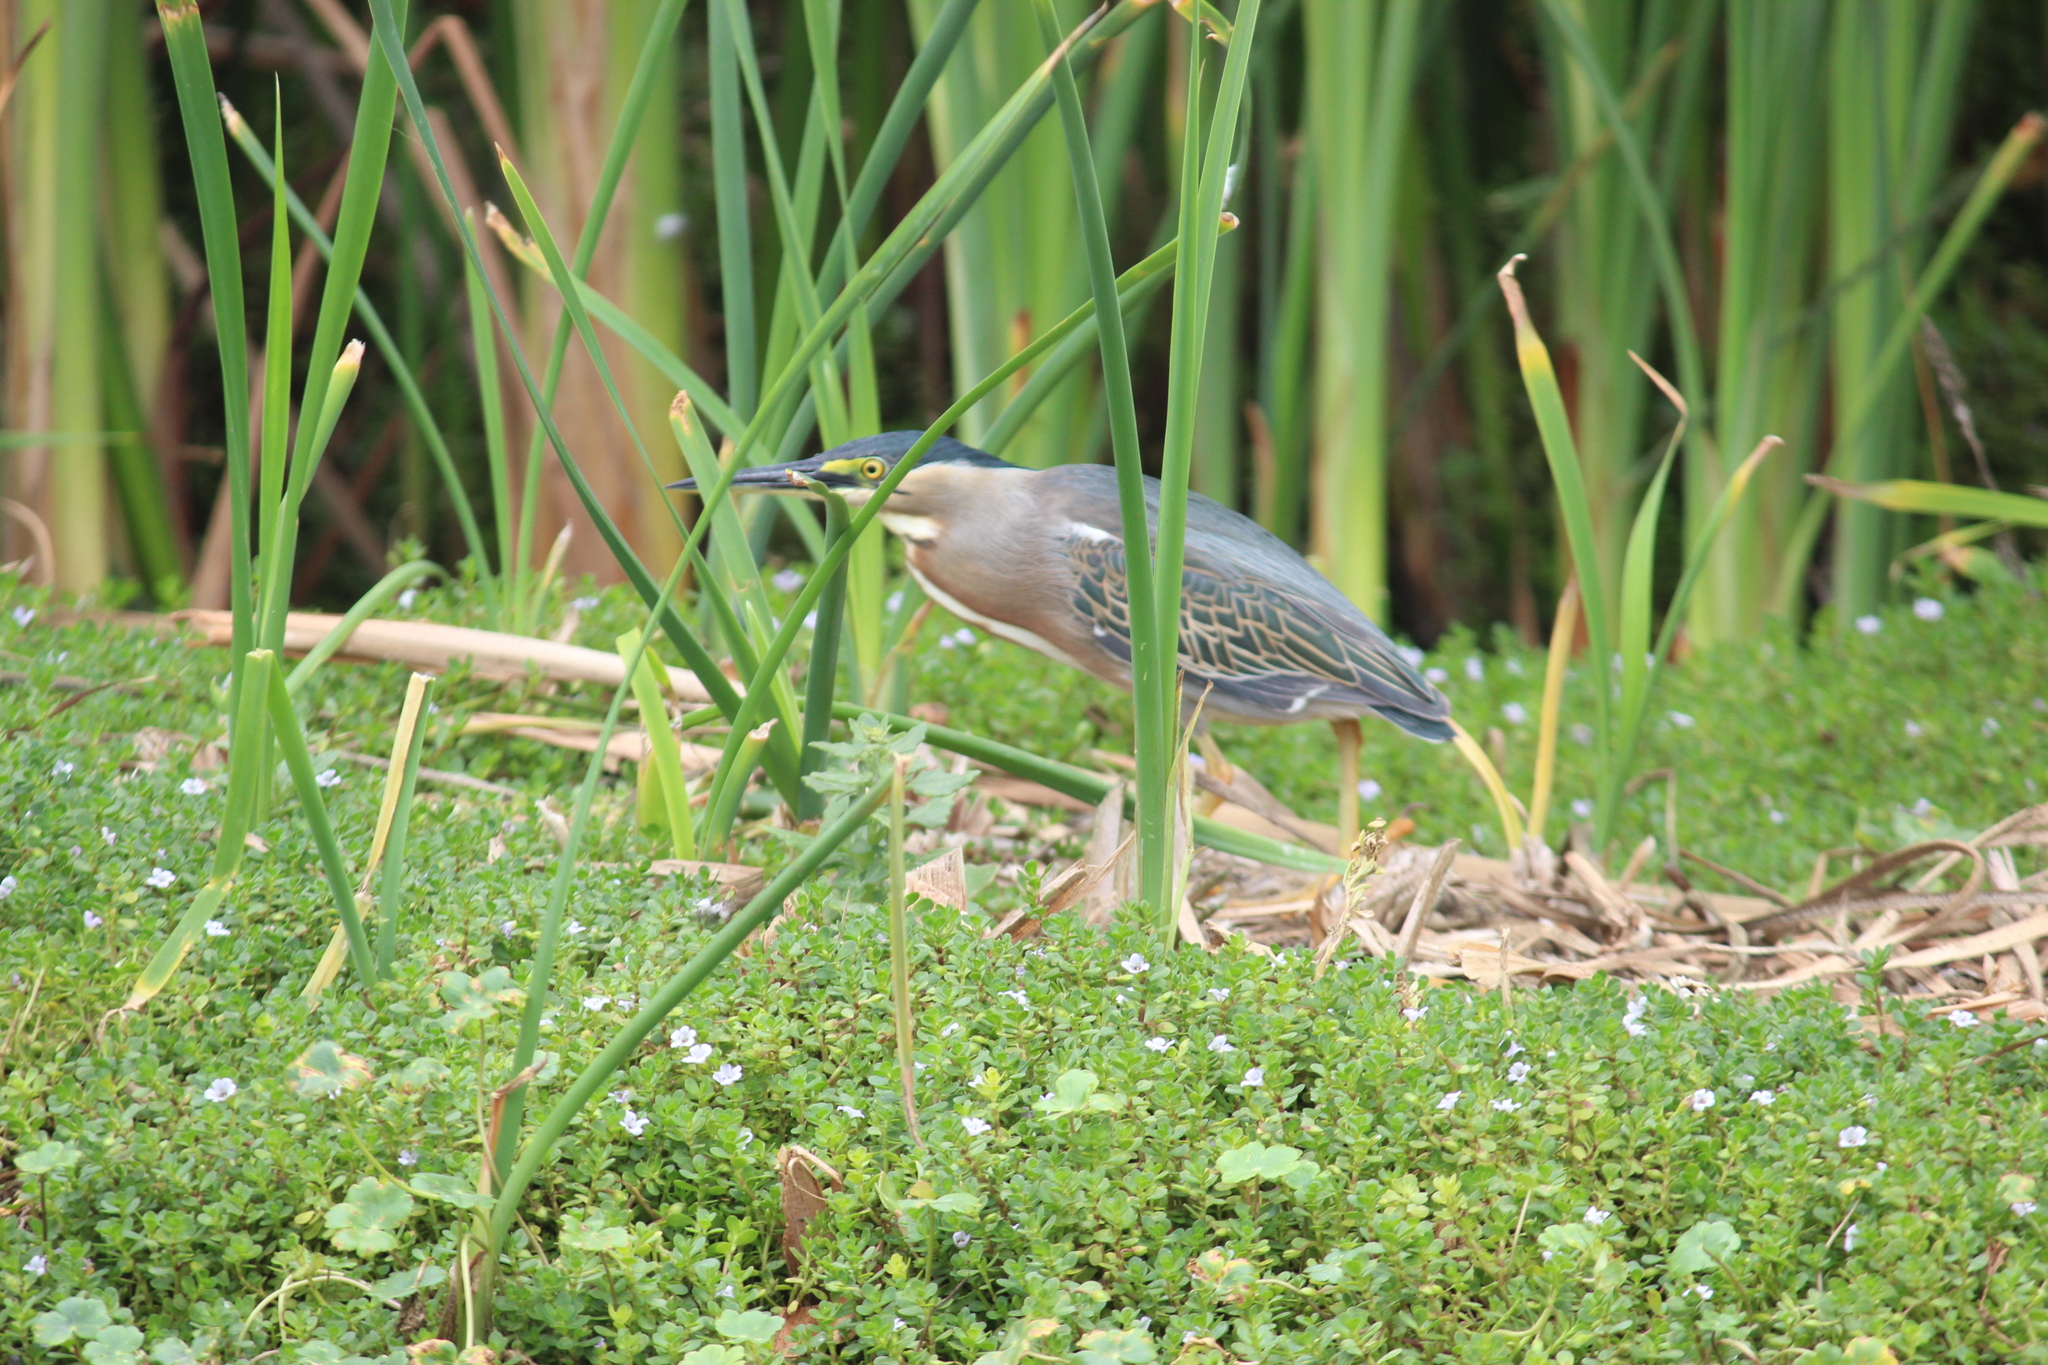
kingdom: Animalia
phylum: Chordata
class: Aves
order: Pelecaniformes
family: Ardeidae
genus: Butorides
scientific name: Butorides striata
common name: Striated heron
